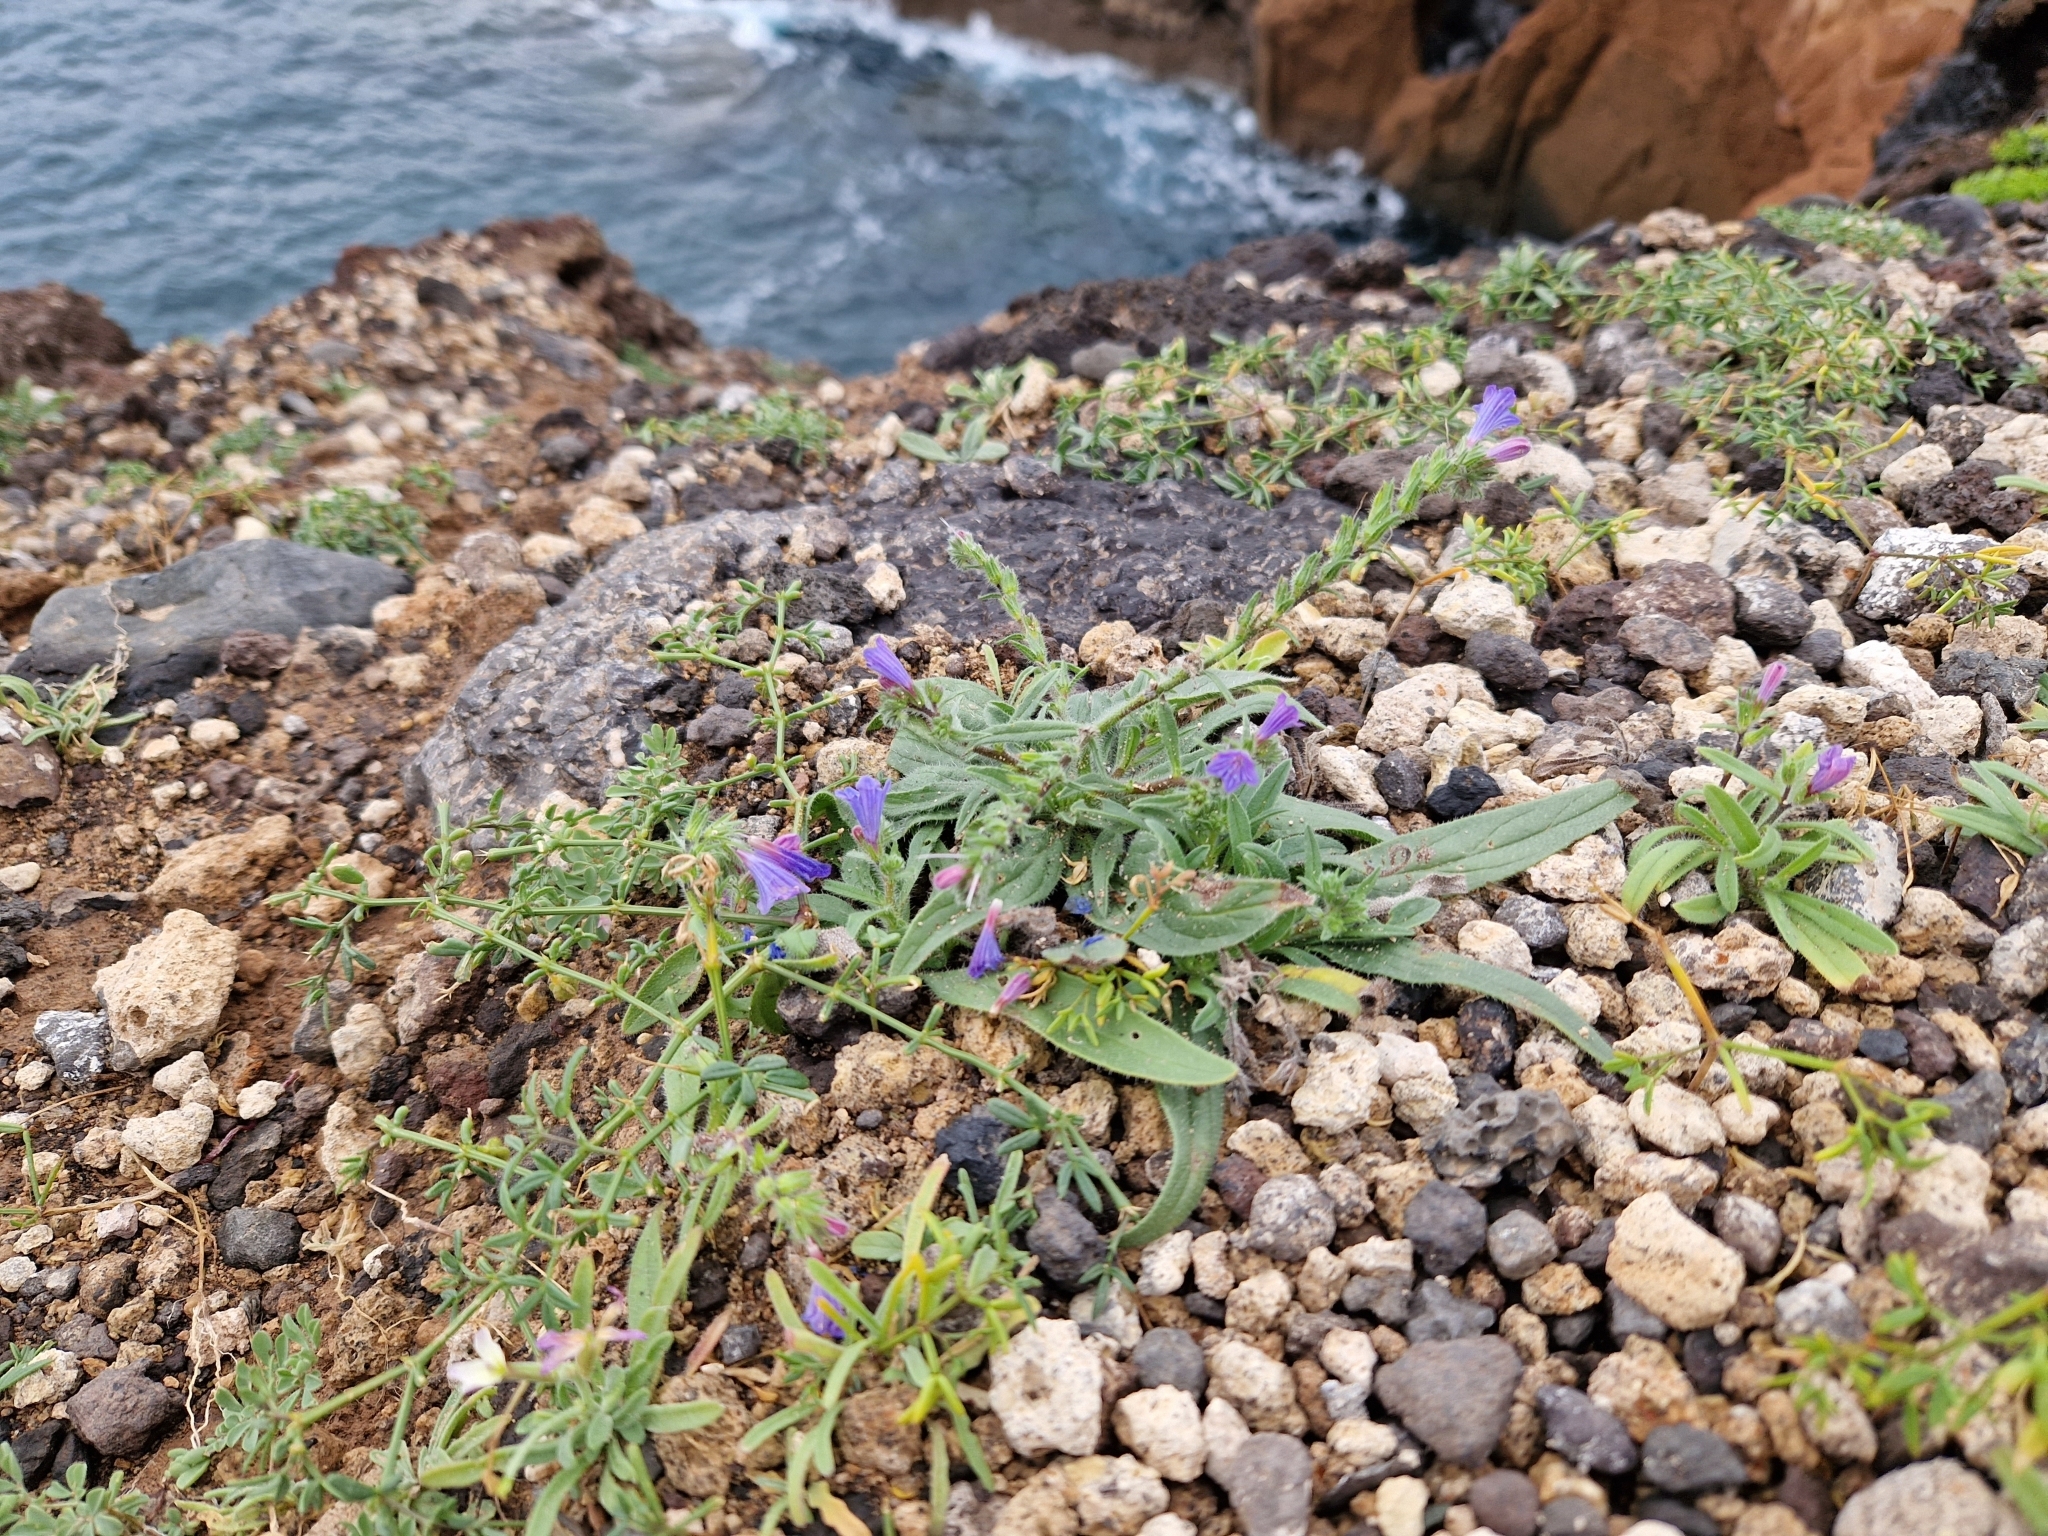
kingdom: Plantae
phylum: Tracheophyta
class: Magnoliopsida
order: Boraginales
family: Boraginaceae
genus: Echium
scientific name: Echium bonnetii
